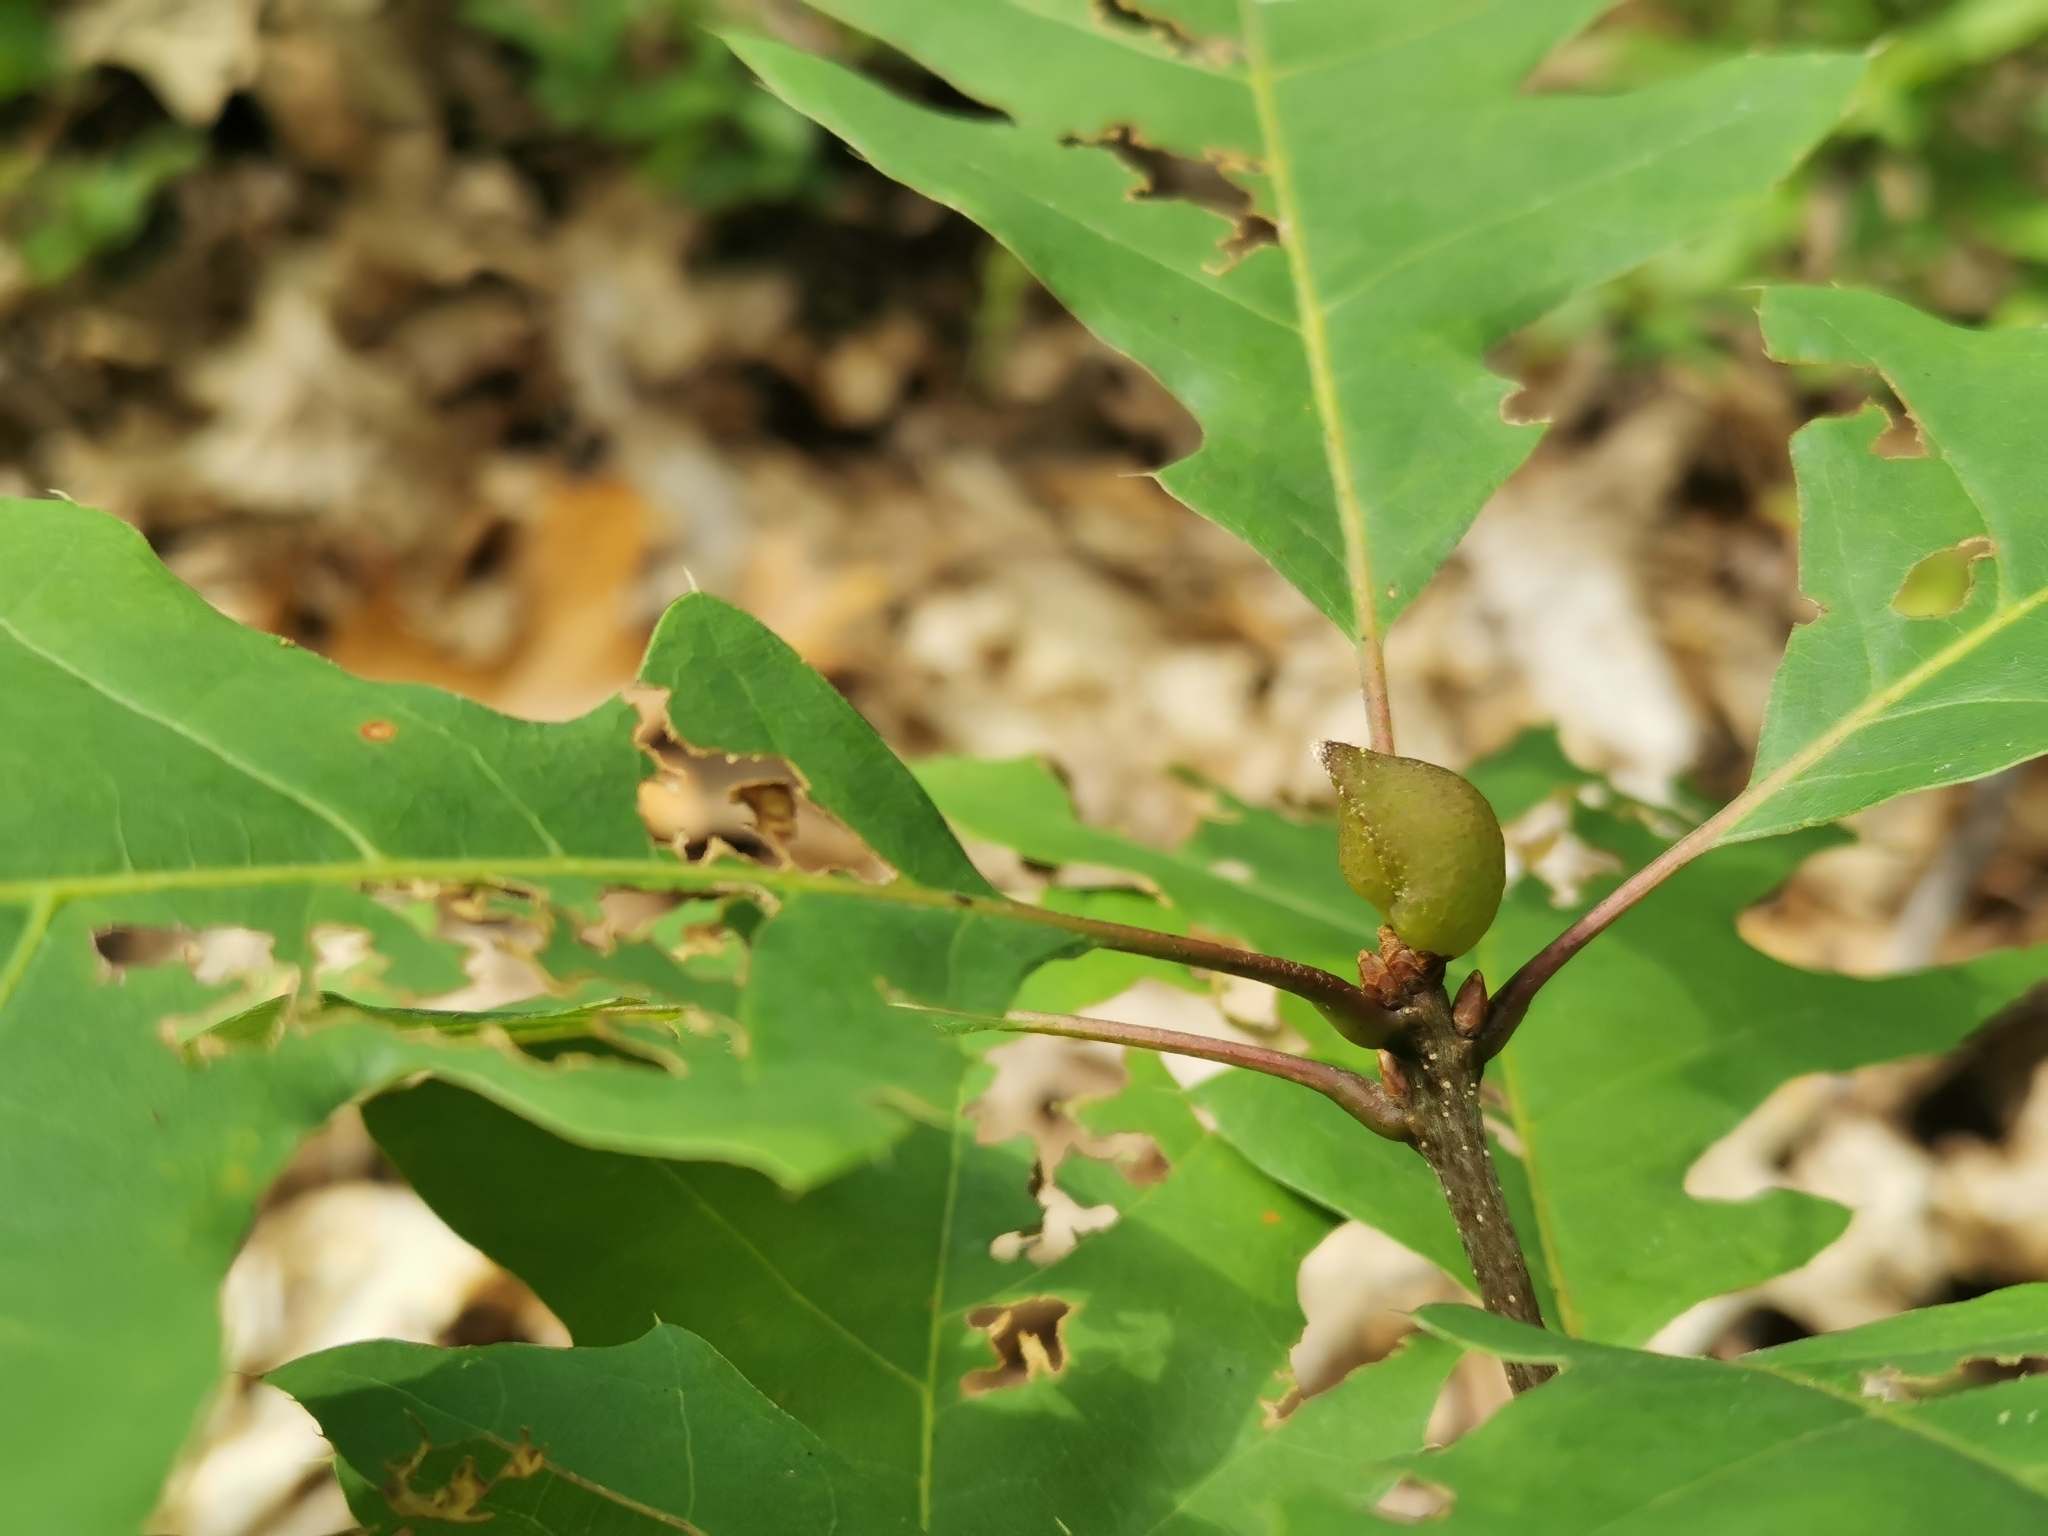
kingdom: Animalia
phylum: Arthropoda
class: Insecta
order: Hymenoptera
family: Cynipidae
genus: Amphibolips
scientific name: Amphibolips
